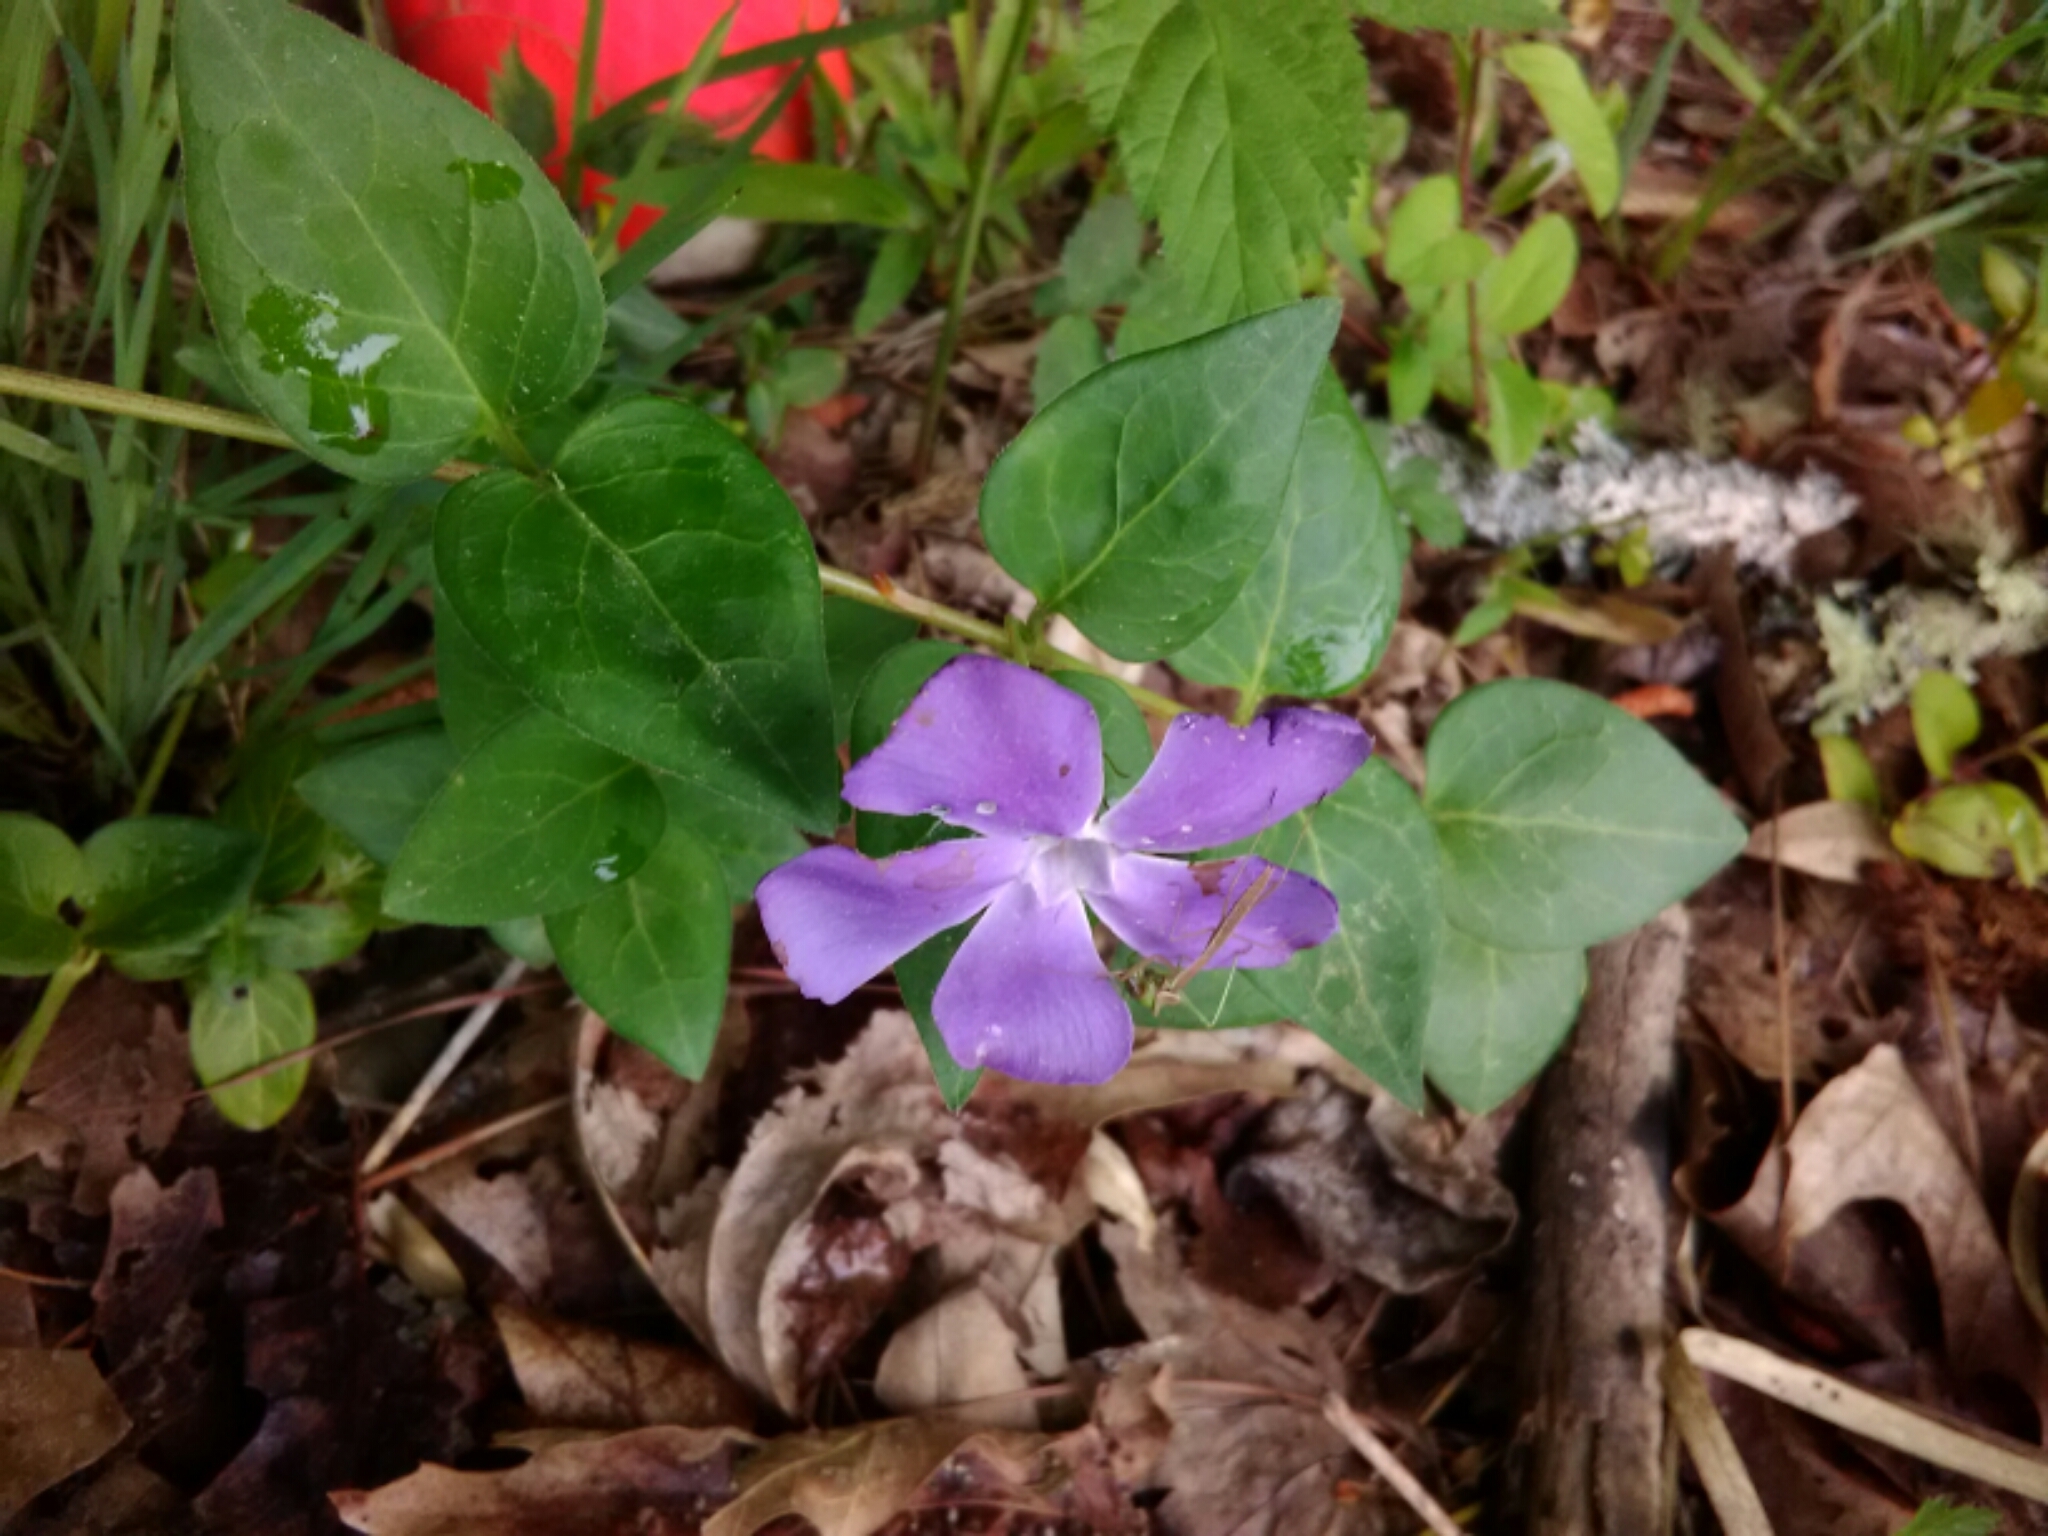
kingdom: Plantae
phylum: Tracheophyta
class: Magnoliopsida
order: Gentianales
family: Apocynaceae
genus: Vinca
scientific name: Vinca major
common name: Greater periwinkle
